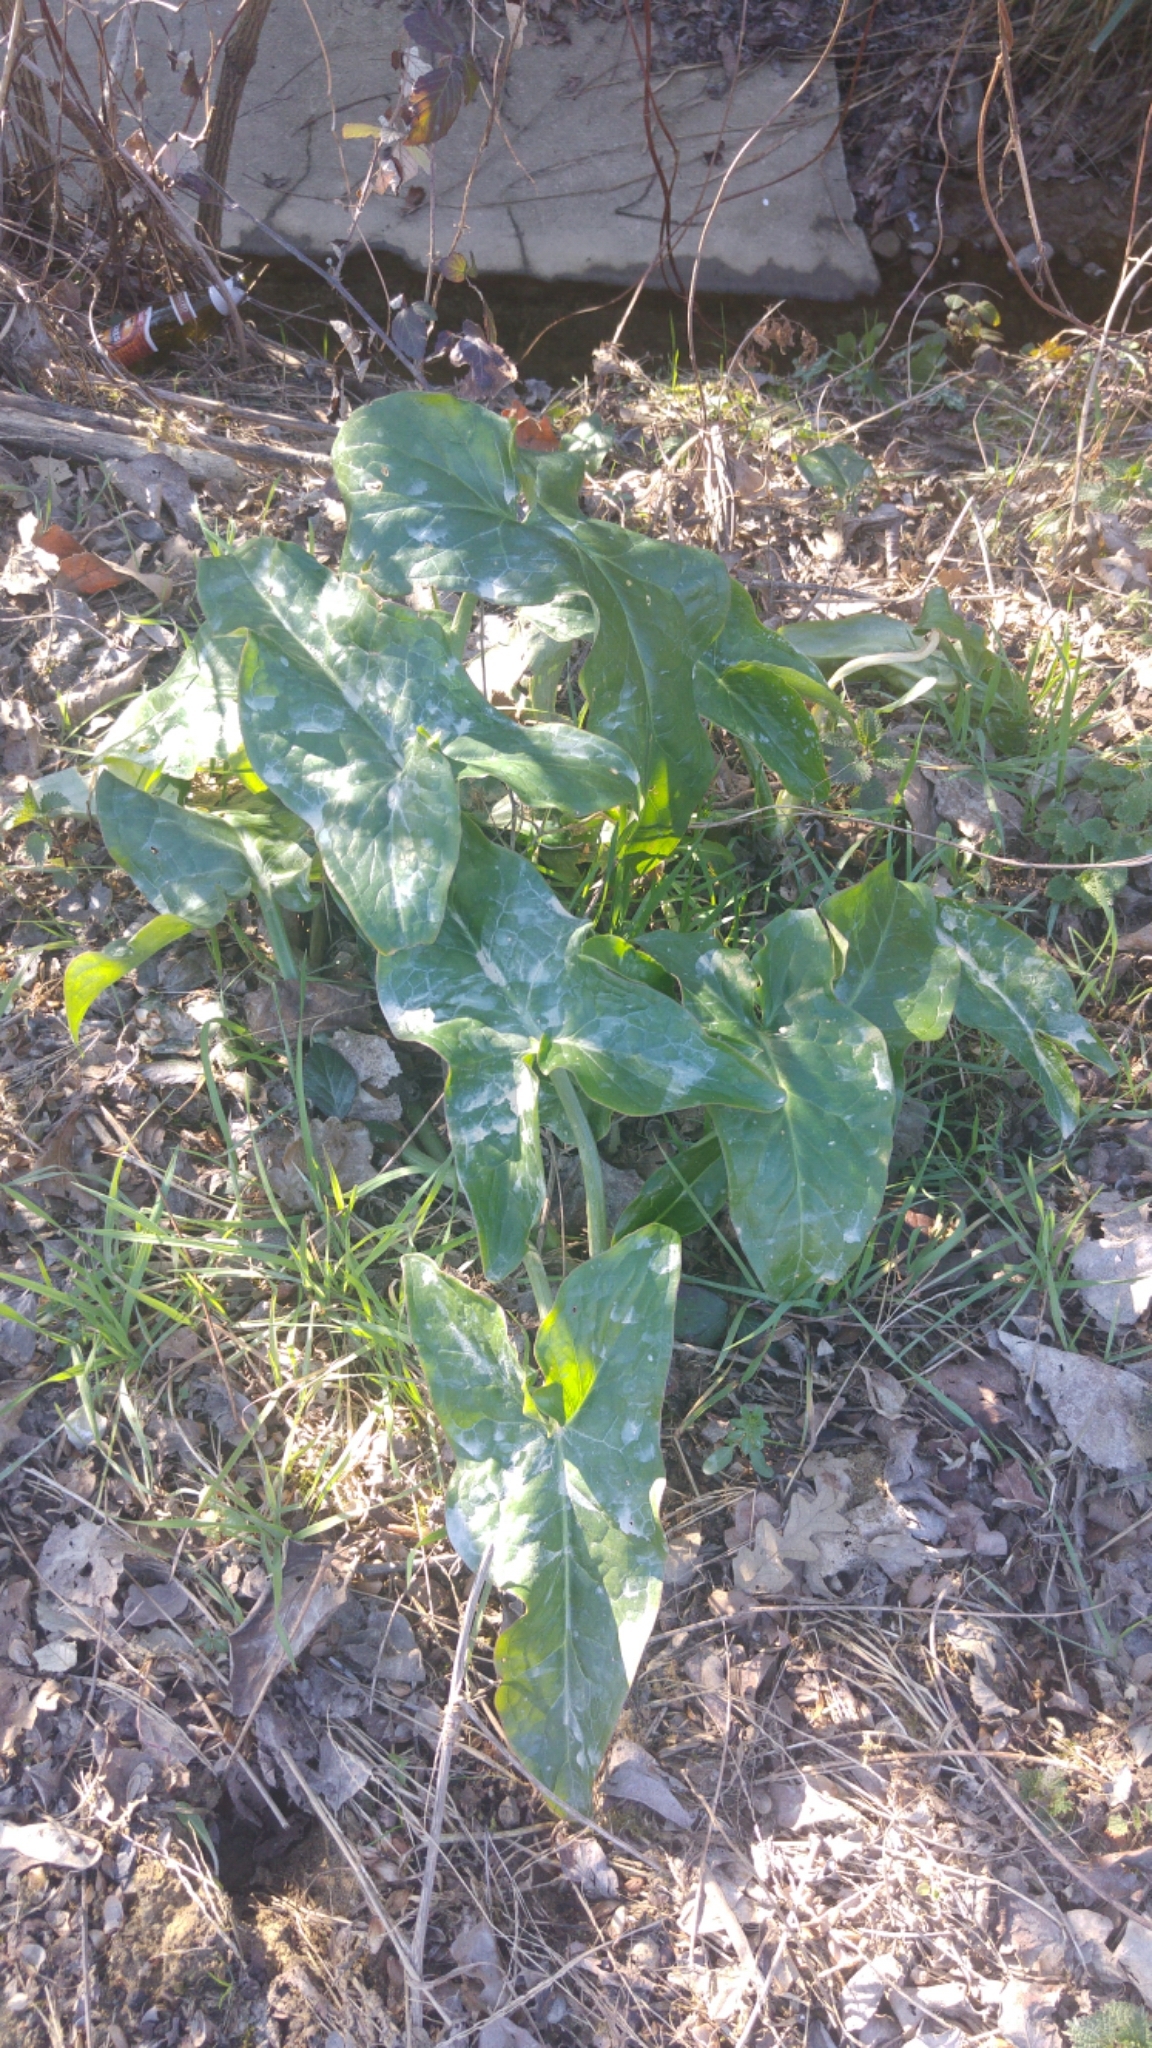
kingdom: Plantae
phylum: Tracheophyta
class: Liliopsida
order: Alismatales
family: Araceae
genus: Arum
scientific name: Arum italicum
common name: Italian lords-and-ladies
